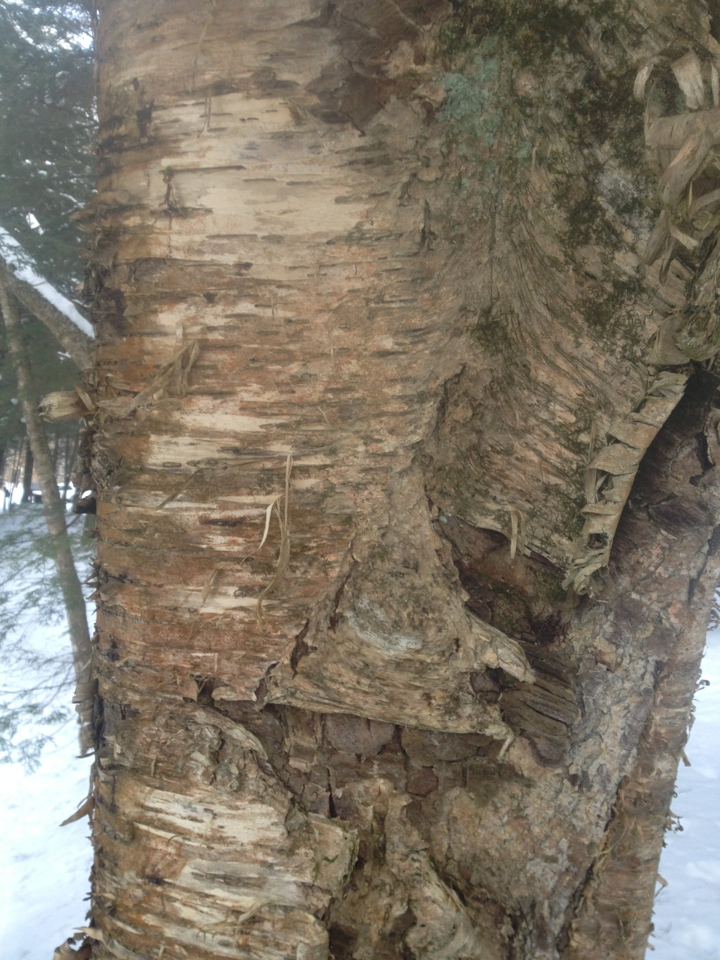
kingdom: Plantae
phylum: Tracheophyta
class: Magnoliopsida
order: Fagales
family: Betulaceae
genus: Betula
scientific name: Betula alleghaniensis
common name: Yellow birch
